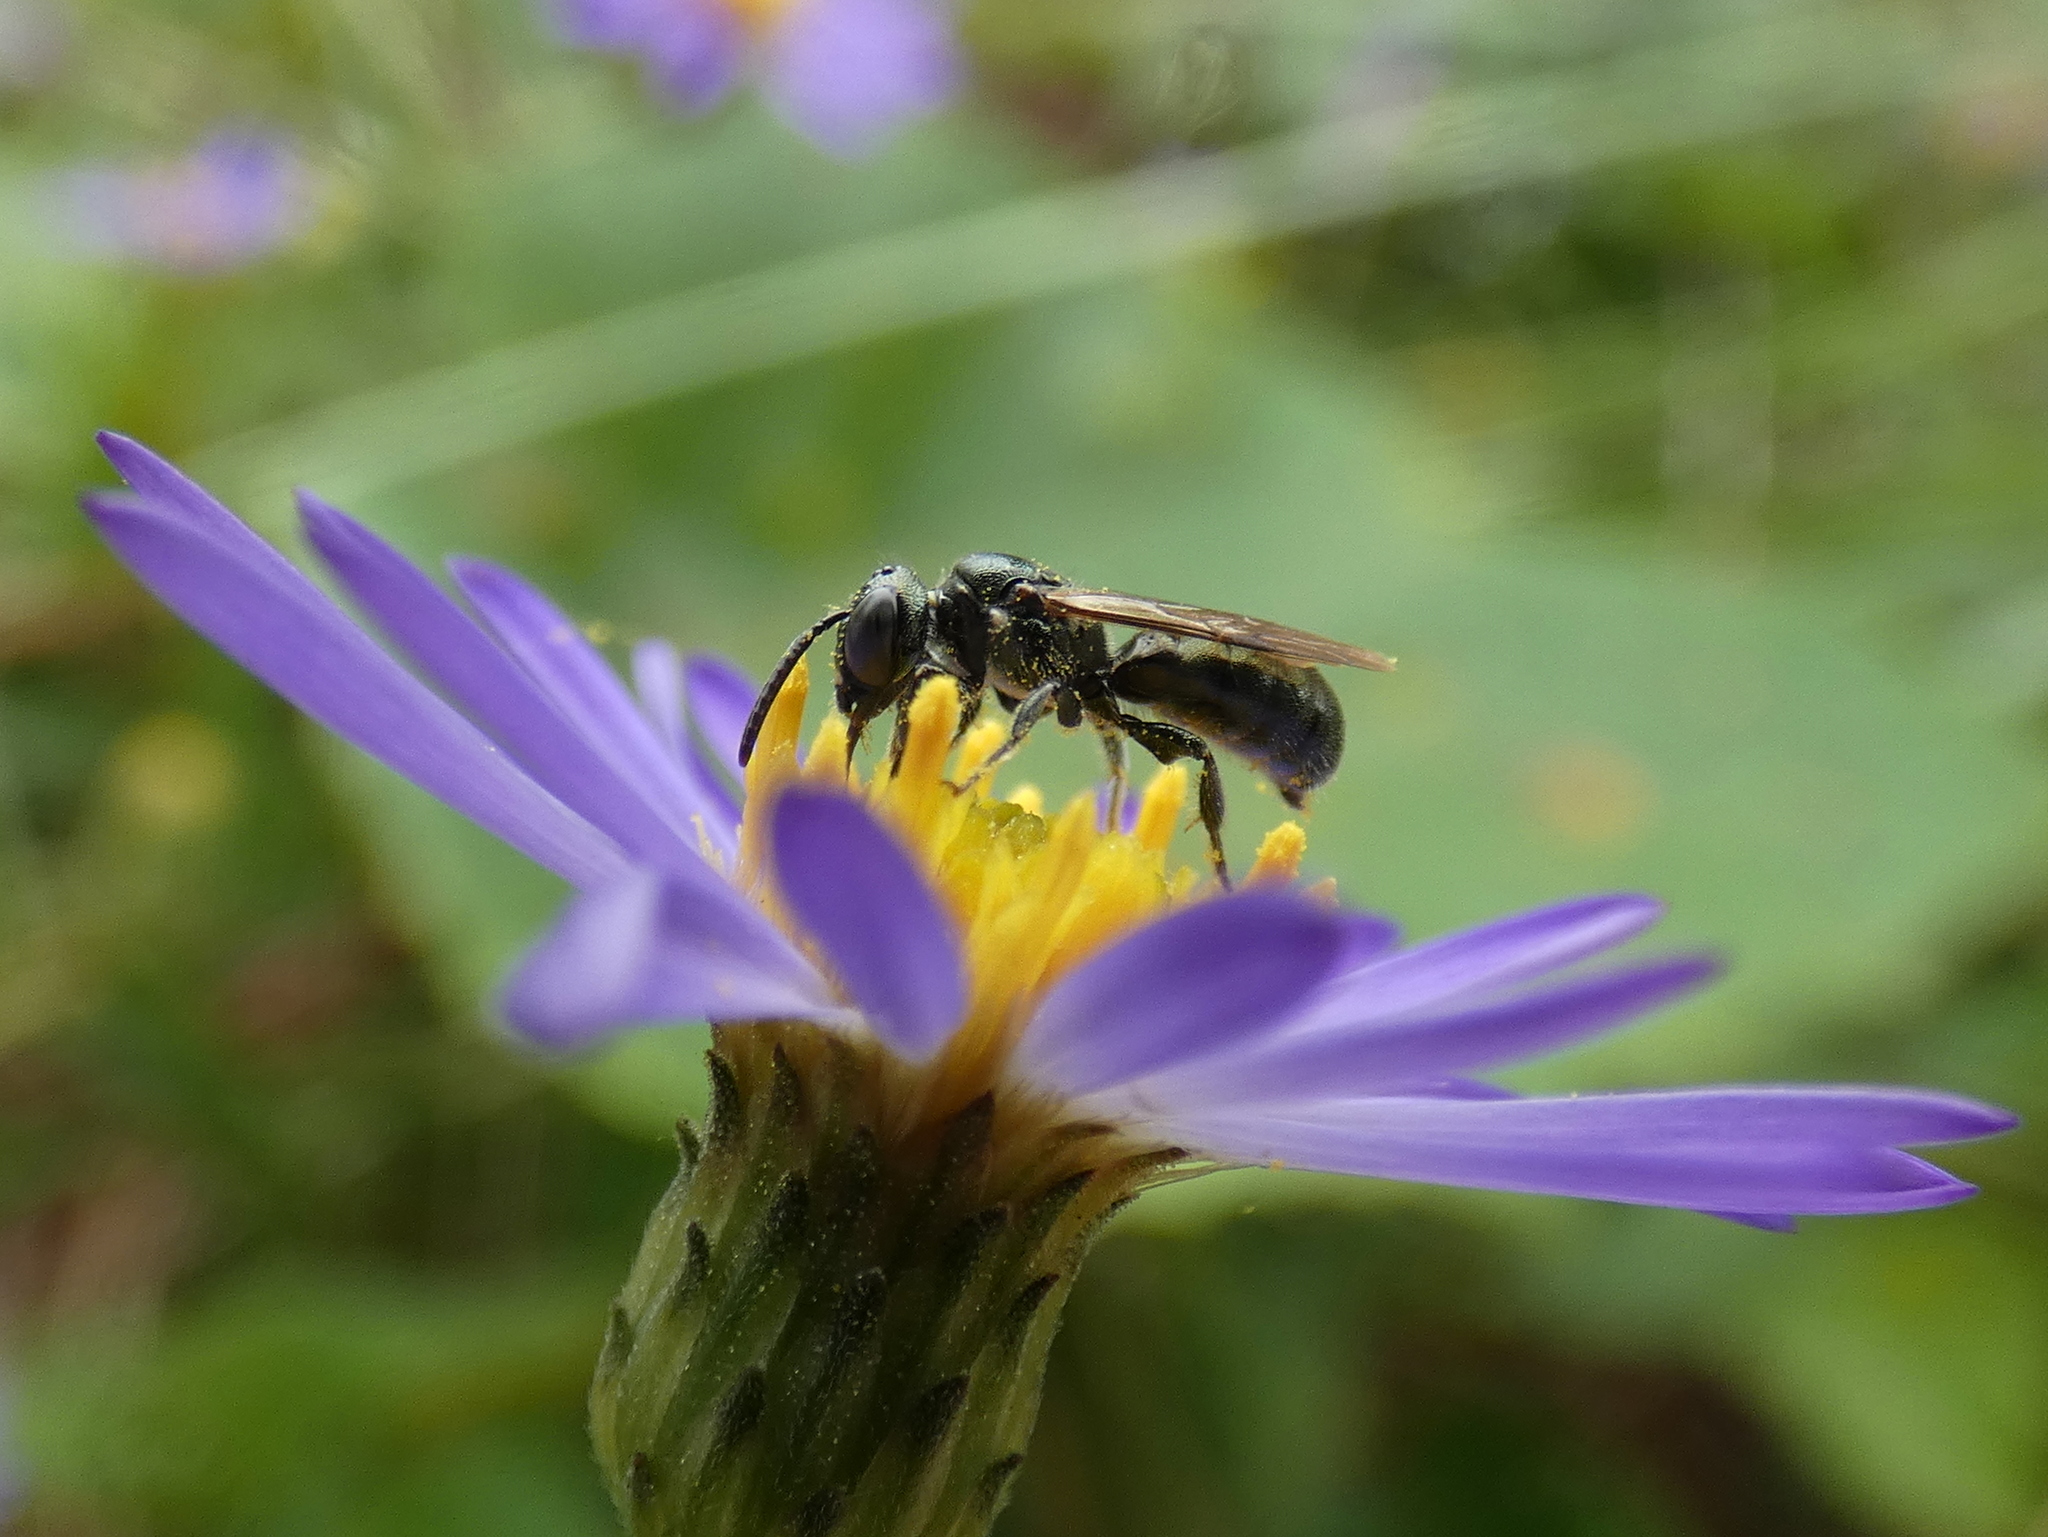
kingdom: Animalia
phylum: Arthropoda
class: Insecta
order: Hymenoptera
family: Apidae
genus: Ceratina
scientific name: Ceratina calcarata
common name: Spurred carpenter bee
